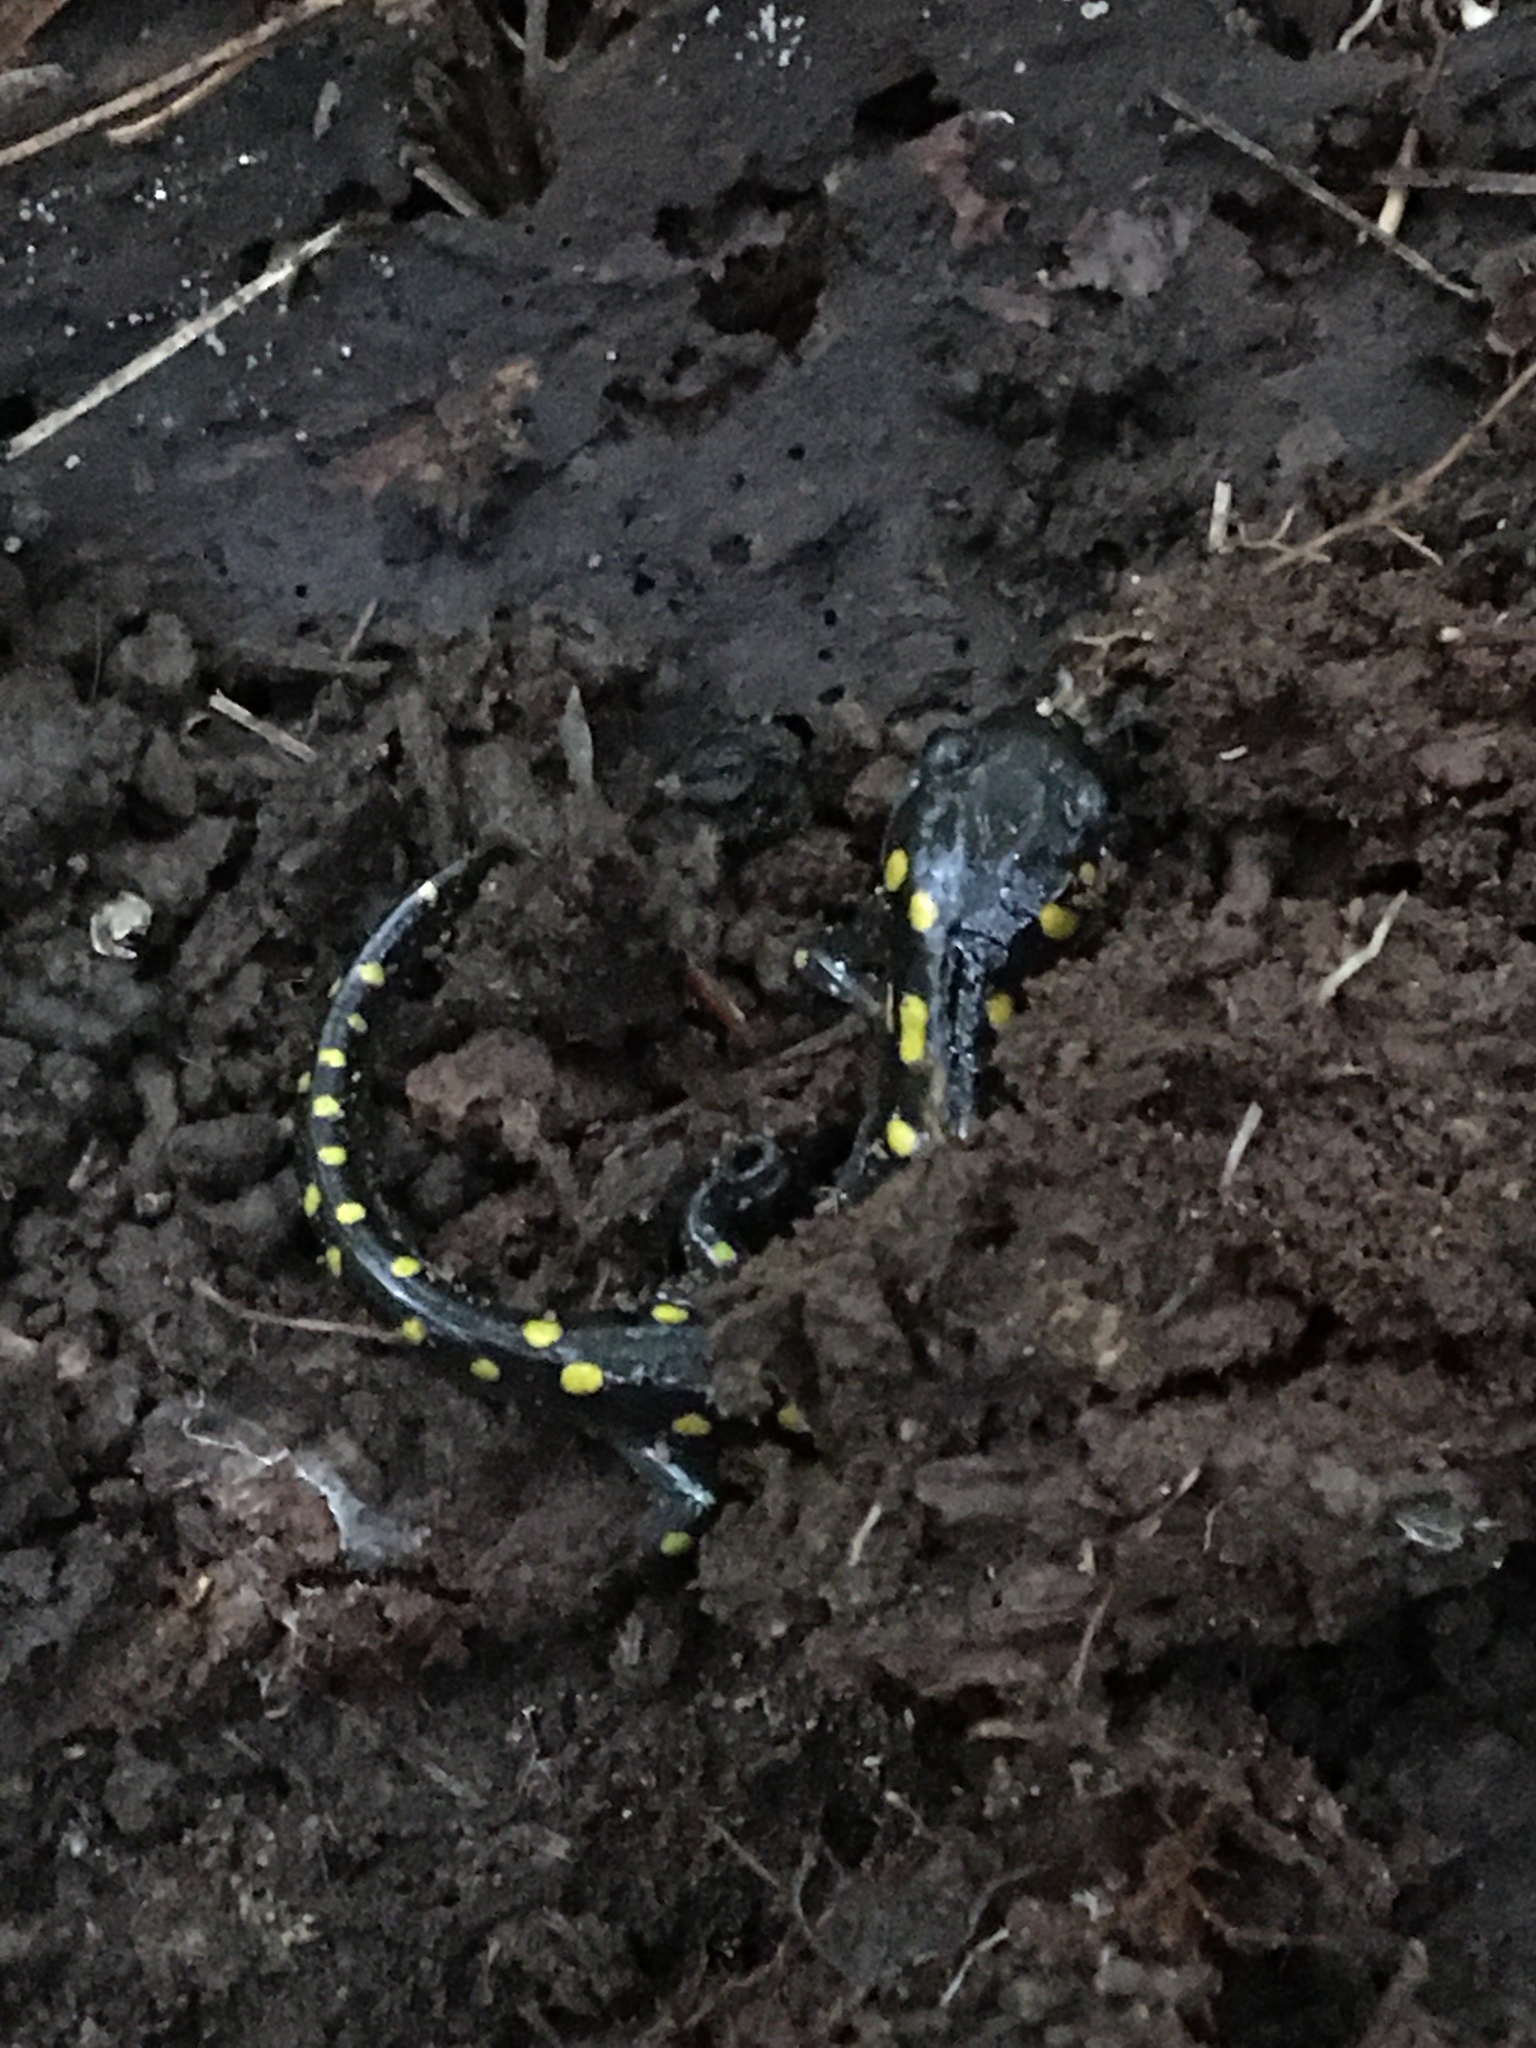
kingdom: Animalia
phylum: Chordata
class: Amphibia
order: Caudata
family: Ambystomatidae
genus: Ambystoma
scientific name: Ambystoma maculatum
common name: Spotted salamander
